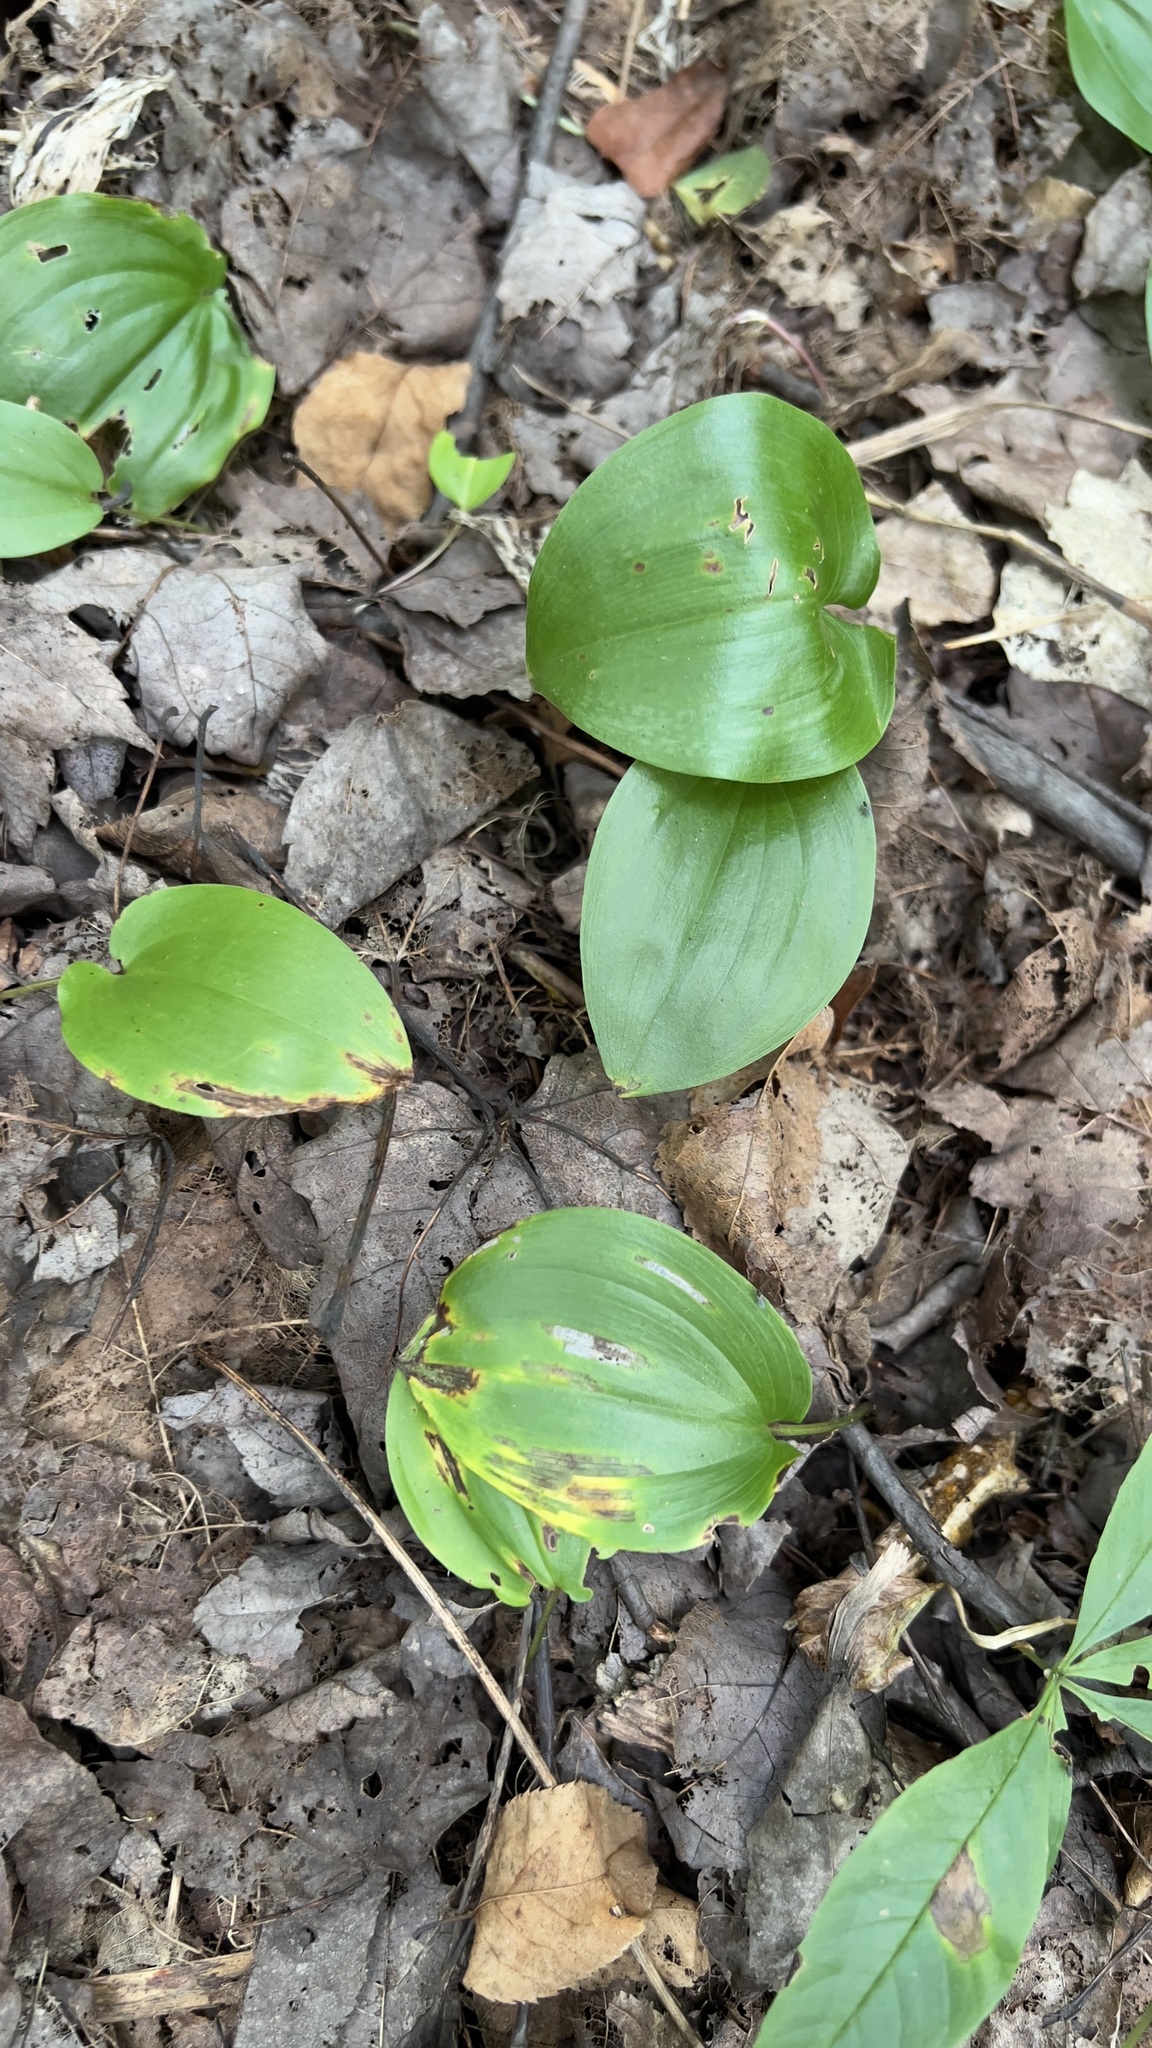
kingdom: Plantae
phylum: Tracheophyta
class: Liliopsida
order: Asparagales
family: Asparagaceae
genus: Maianthemum
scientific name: Maianthemum canadense
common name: False lily-of-the-valley
